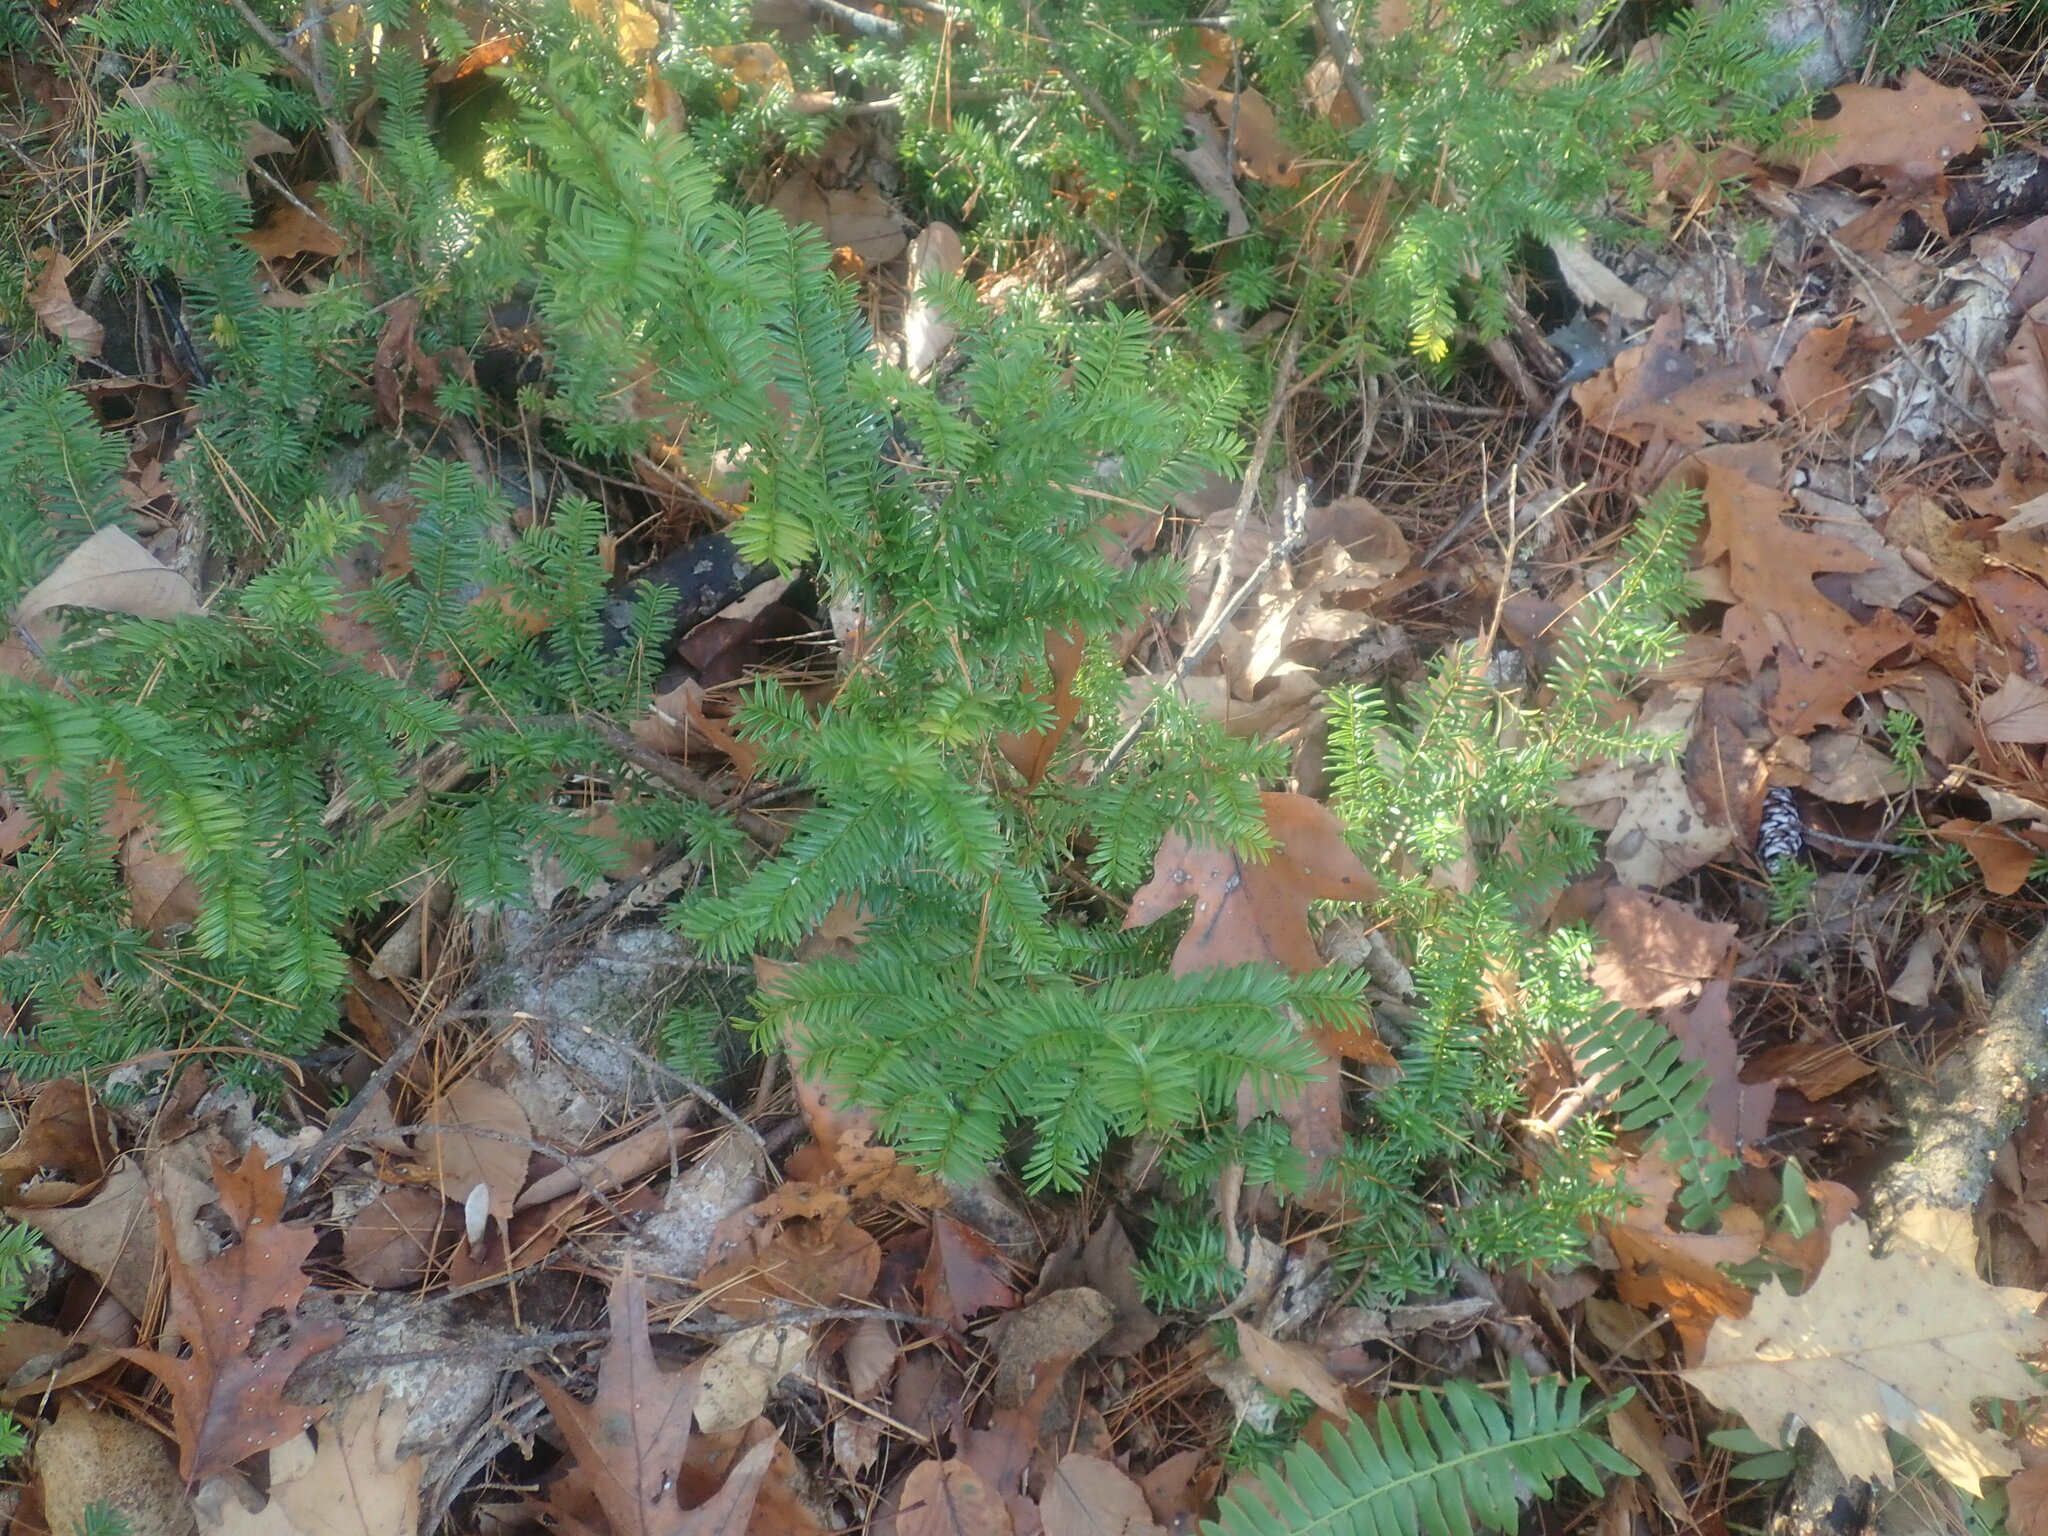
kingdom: Plantae
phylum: Tracheophyta
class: Pinopsida
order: Pinales
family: Taxaceae
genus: Taxus
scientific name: Taxus canadensis
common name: American yew
